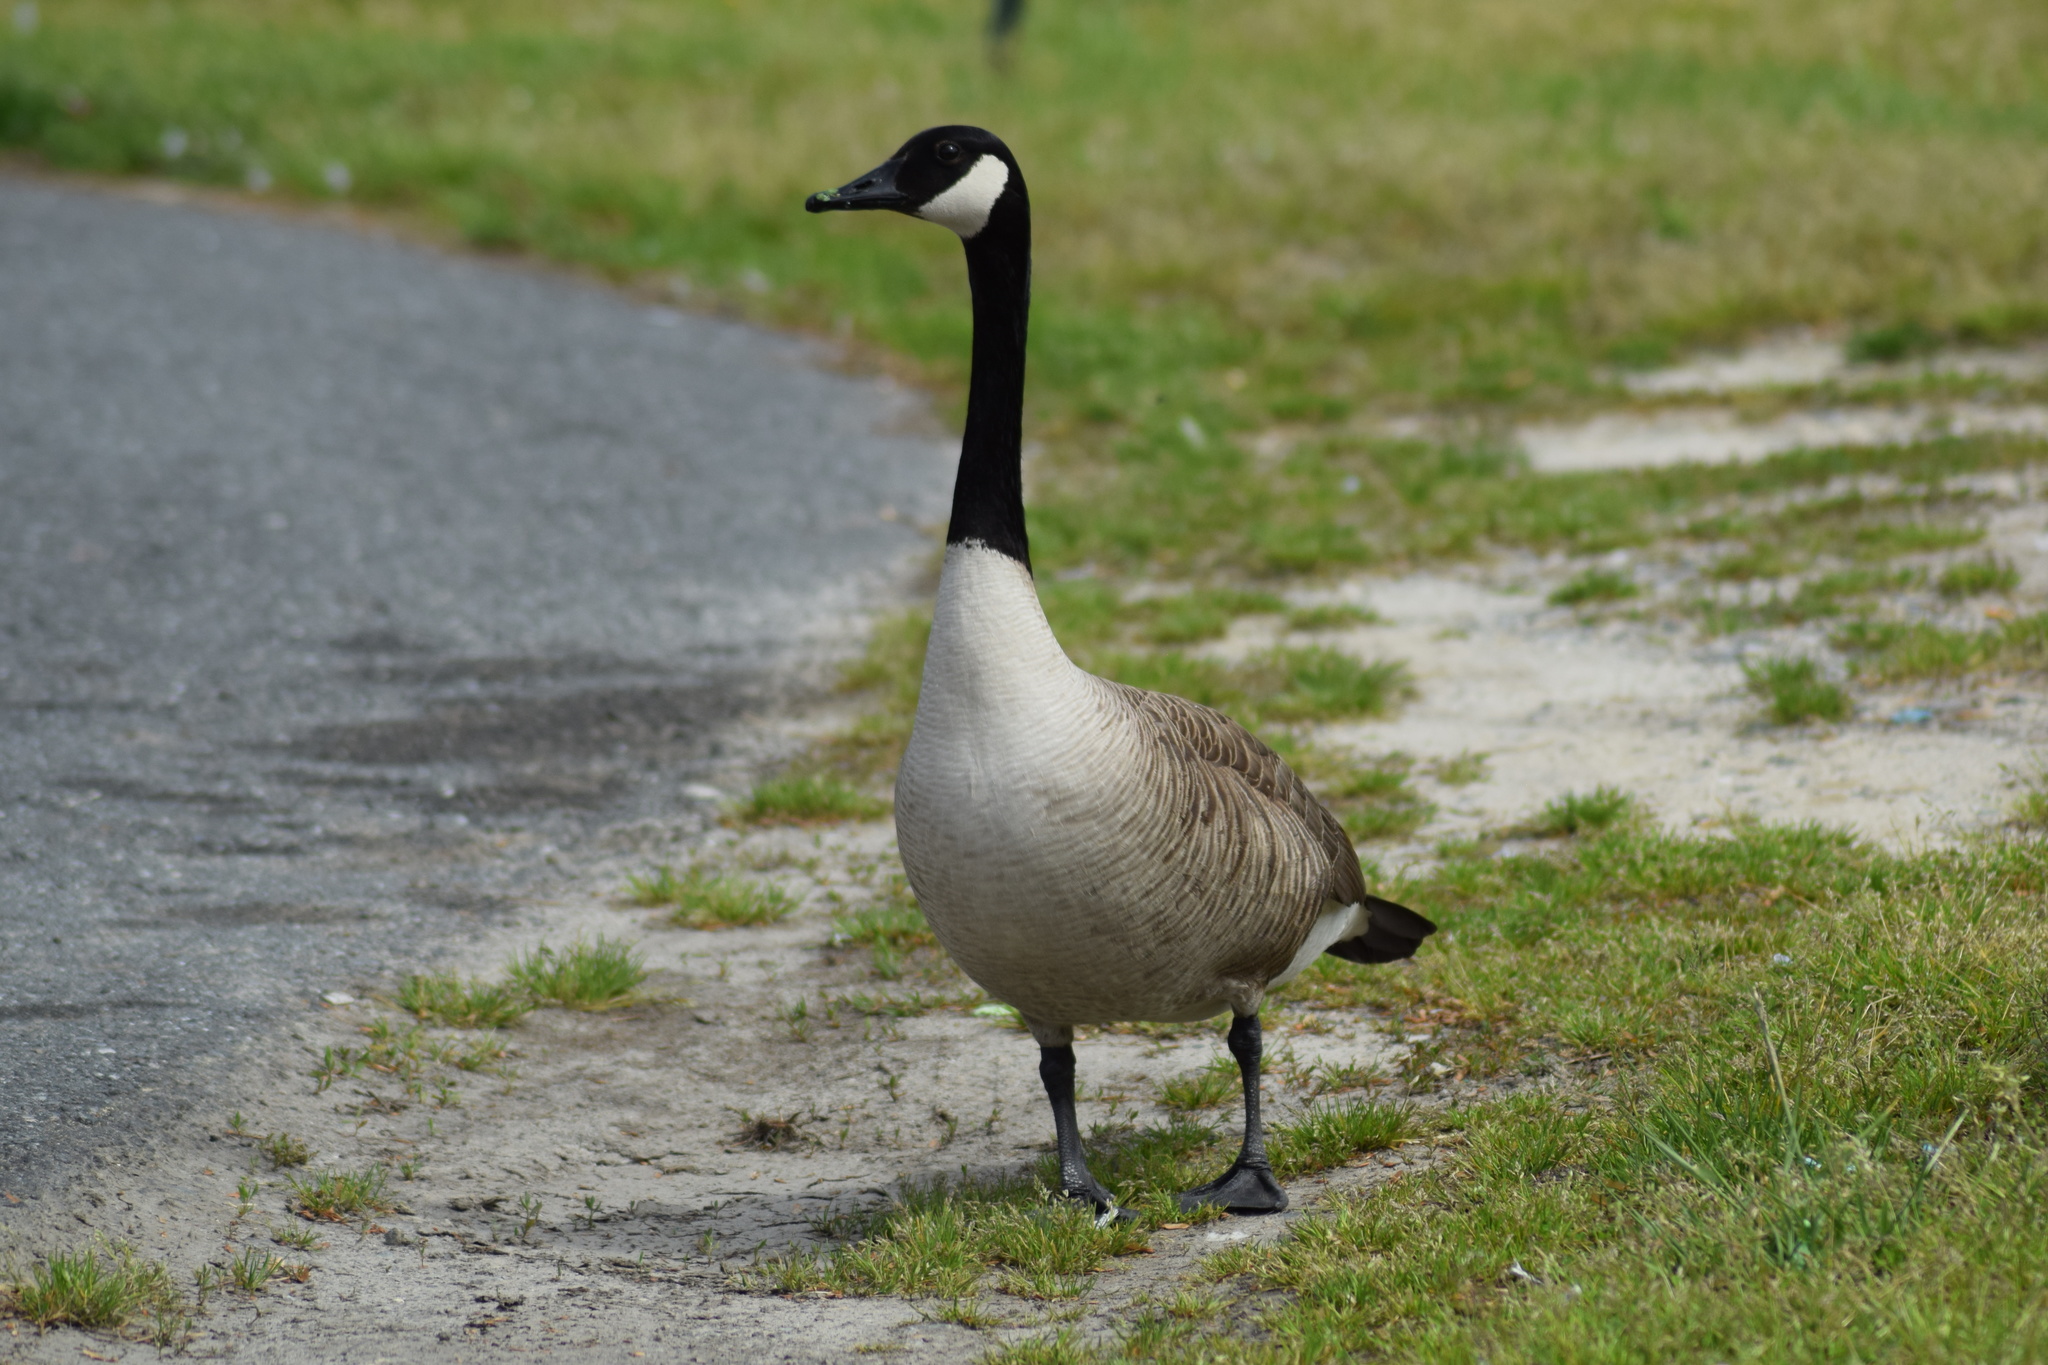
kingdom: Animalia
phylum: Chordata
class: Aves
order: Anseriformes
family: Anatidae
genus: Branta
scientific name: Branta canadensis
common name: Canada goose
